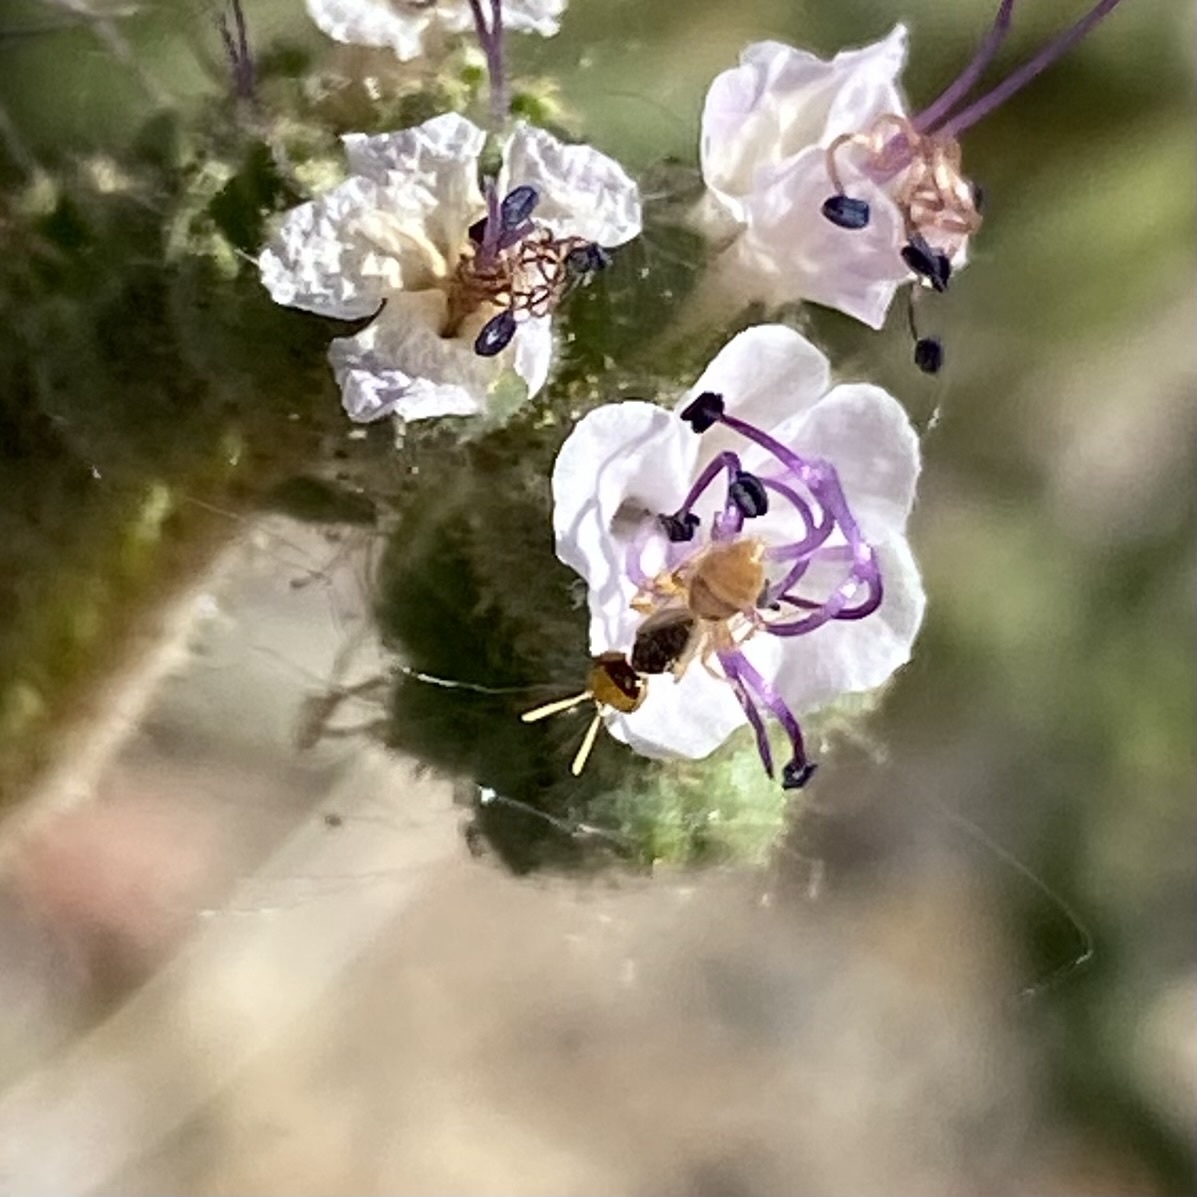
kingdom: Animalia
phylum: Arthropoda
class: Insecta
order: Hymenoptera
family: Andrenidae
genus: Perdita
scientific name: Perdita marcialis
